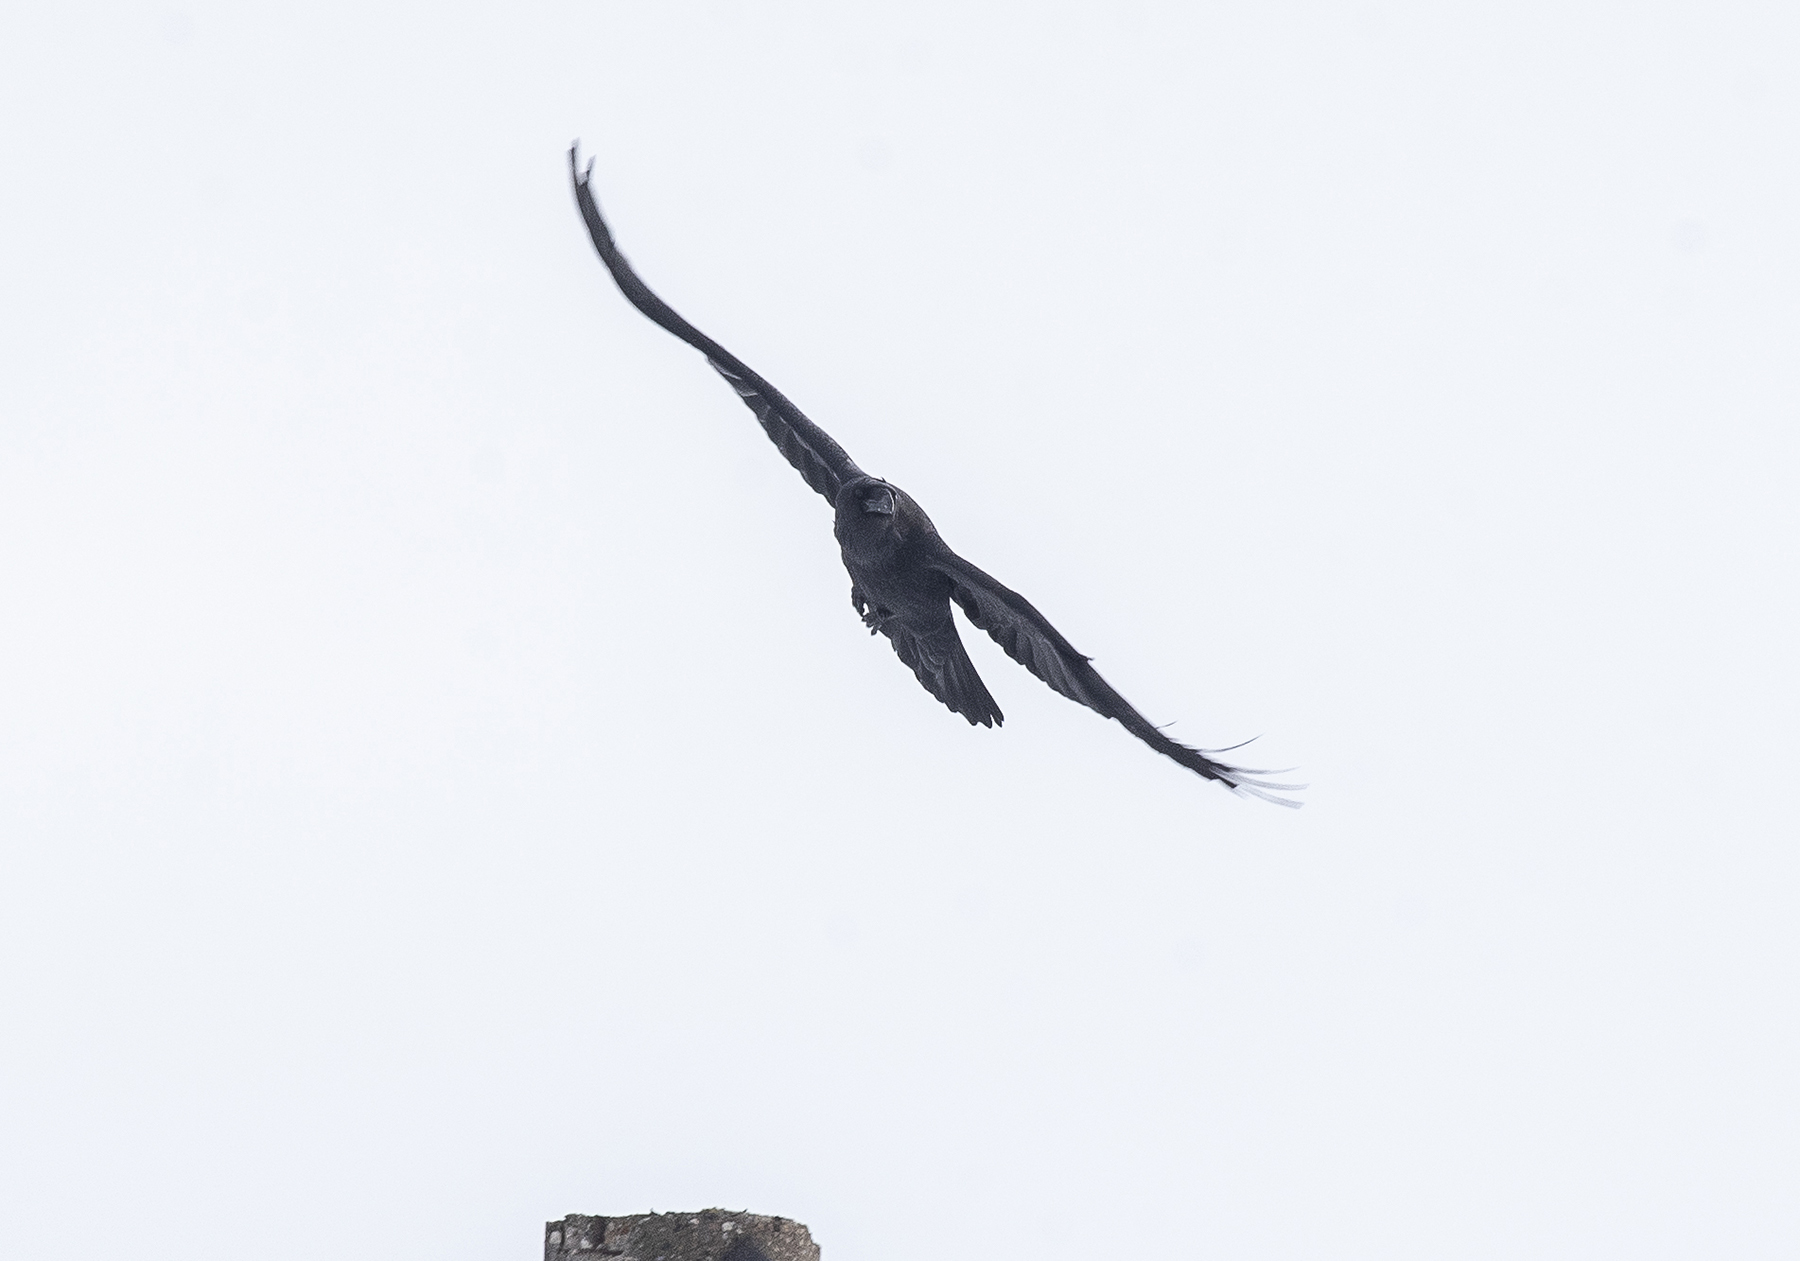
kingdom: Animalia
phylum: Chordata
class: Aves
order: Passeriformes
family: Corvidae
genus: Corvus
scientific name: Corvus corax
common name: Common raven
